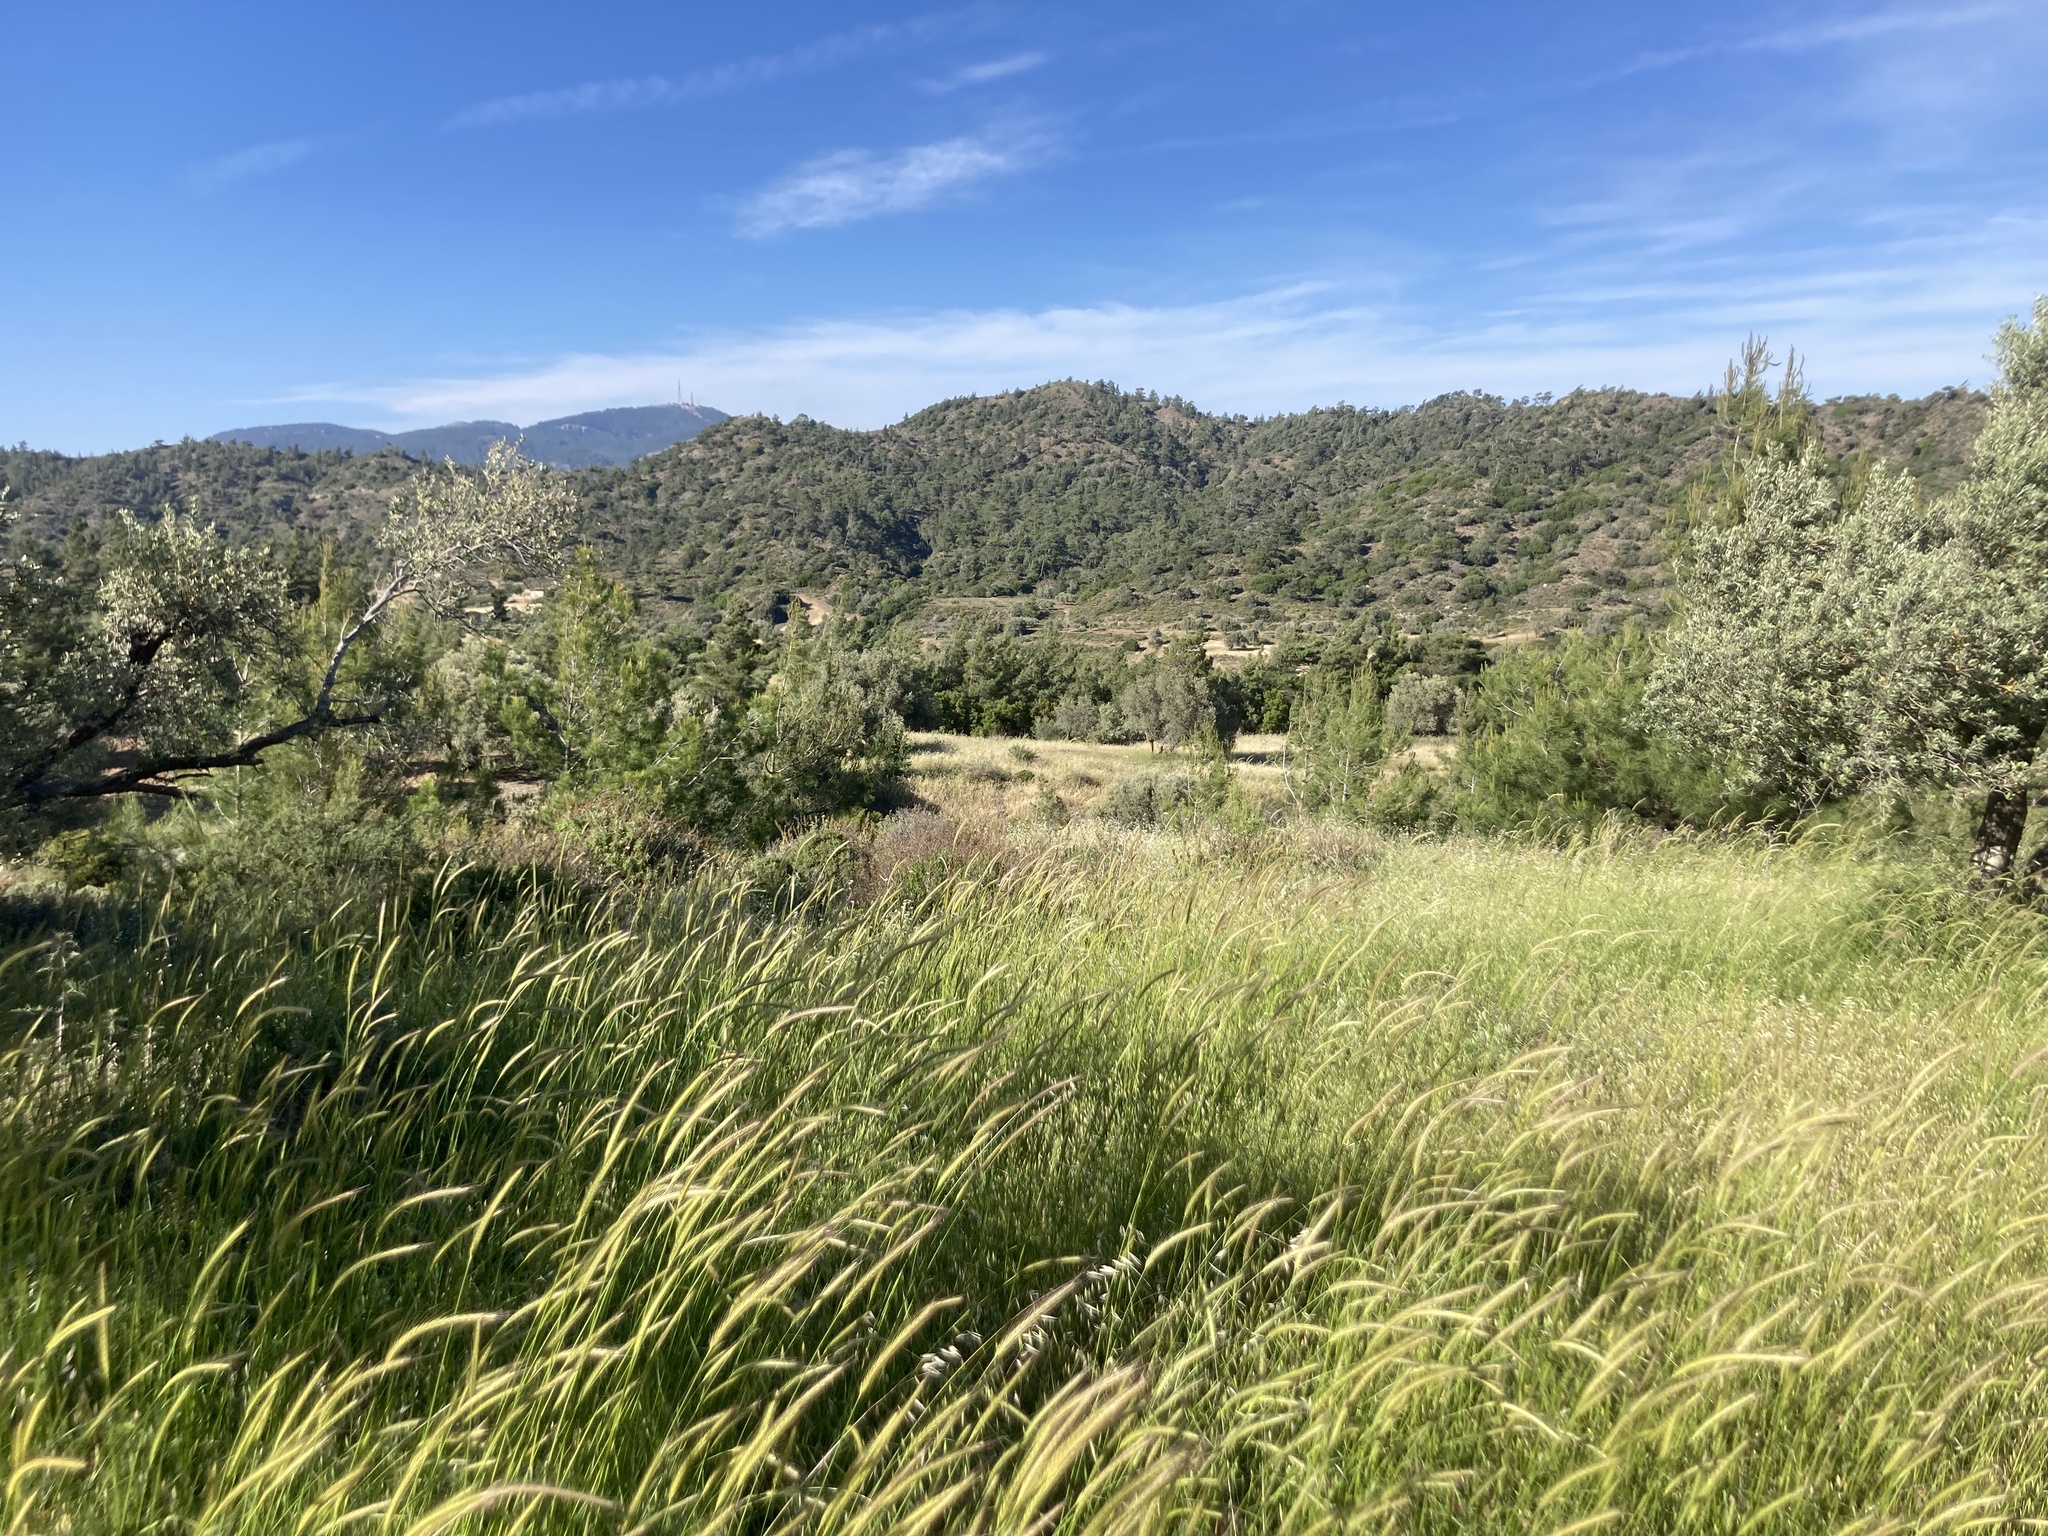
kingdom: Plantae
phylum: Tracheophyta
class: Liliopsida
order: Poales
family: Poaceae
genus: Hordeum
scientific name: Hordeum bulbosum
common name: Bulbous barley
